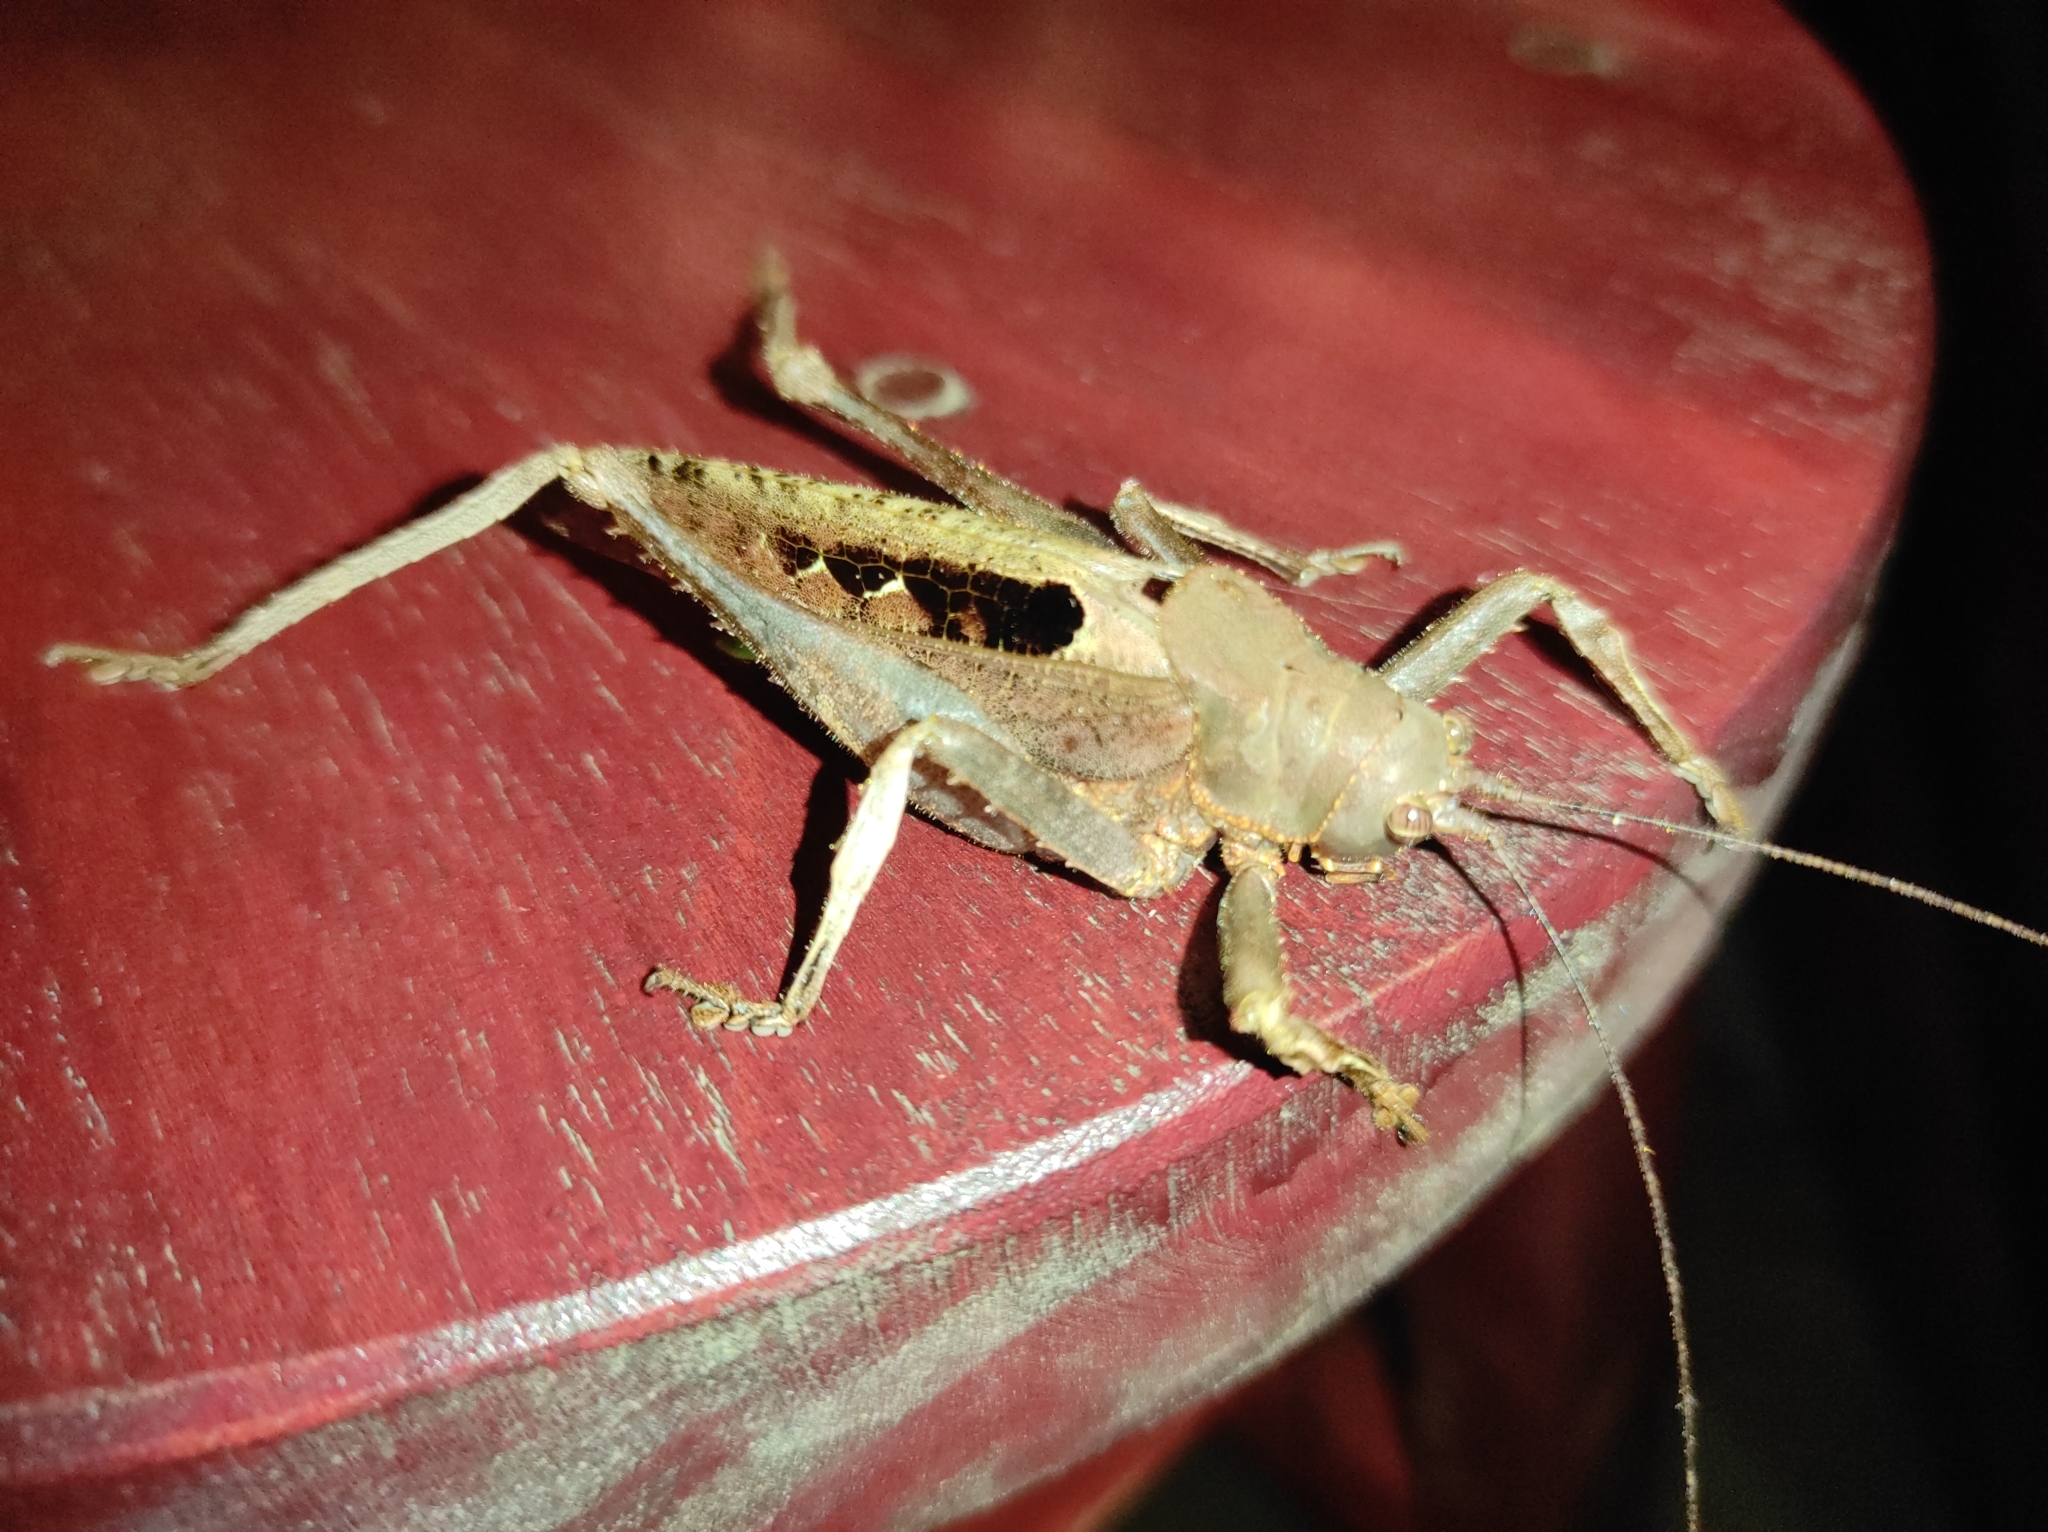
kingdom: Animalia
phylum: Arthropoda
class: Insecta
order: Orthoptera
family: Tettigoniidae
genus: Balboana
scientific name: Balboana tibialis
